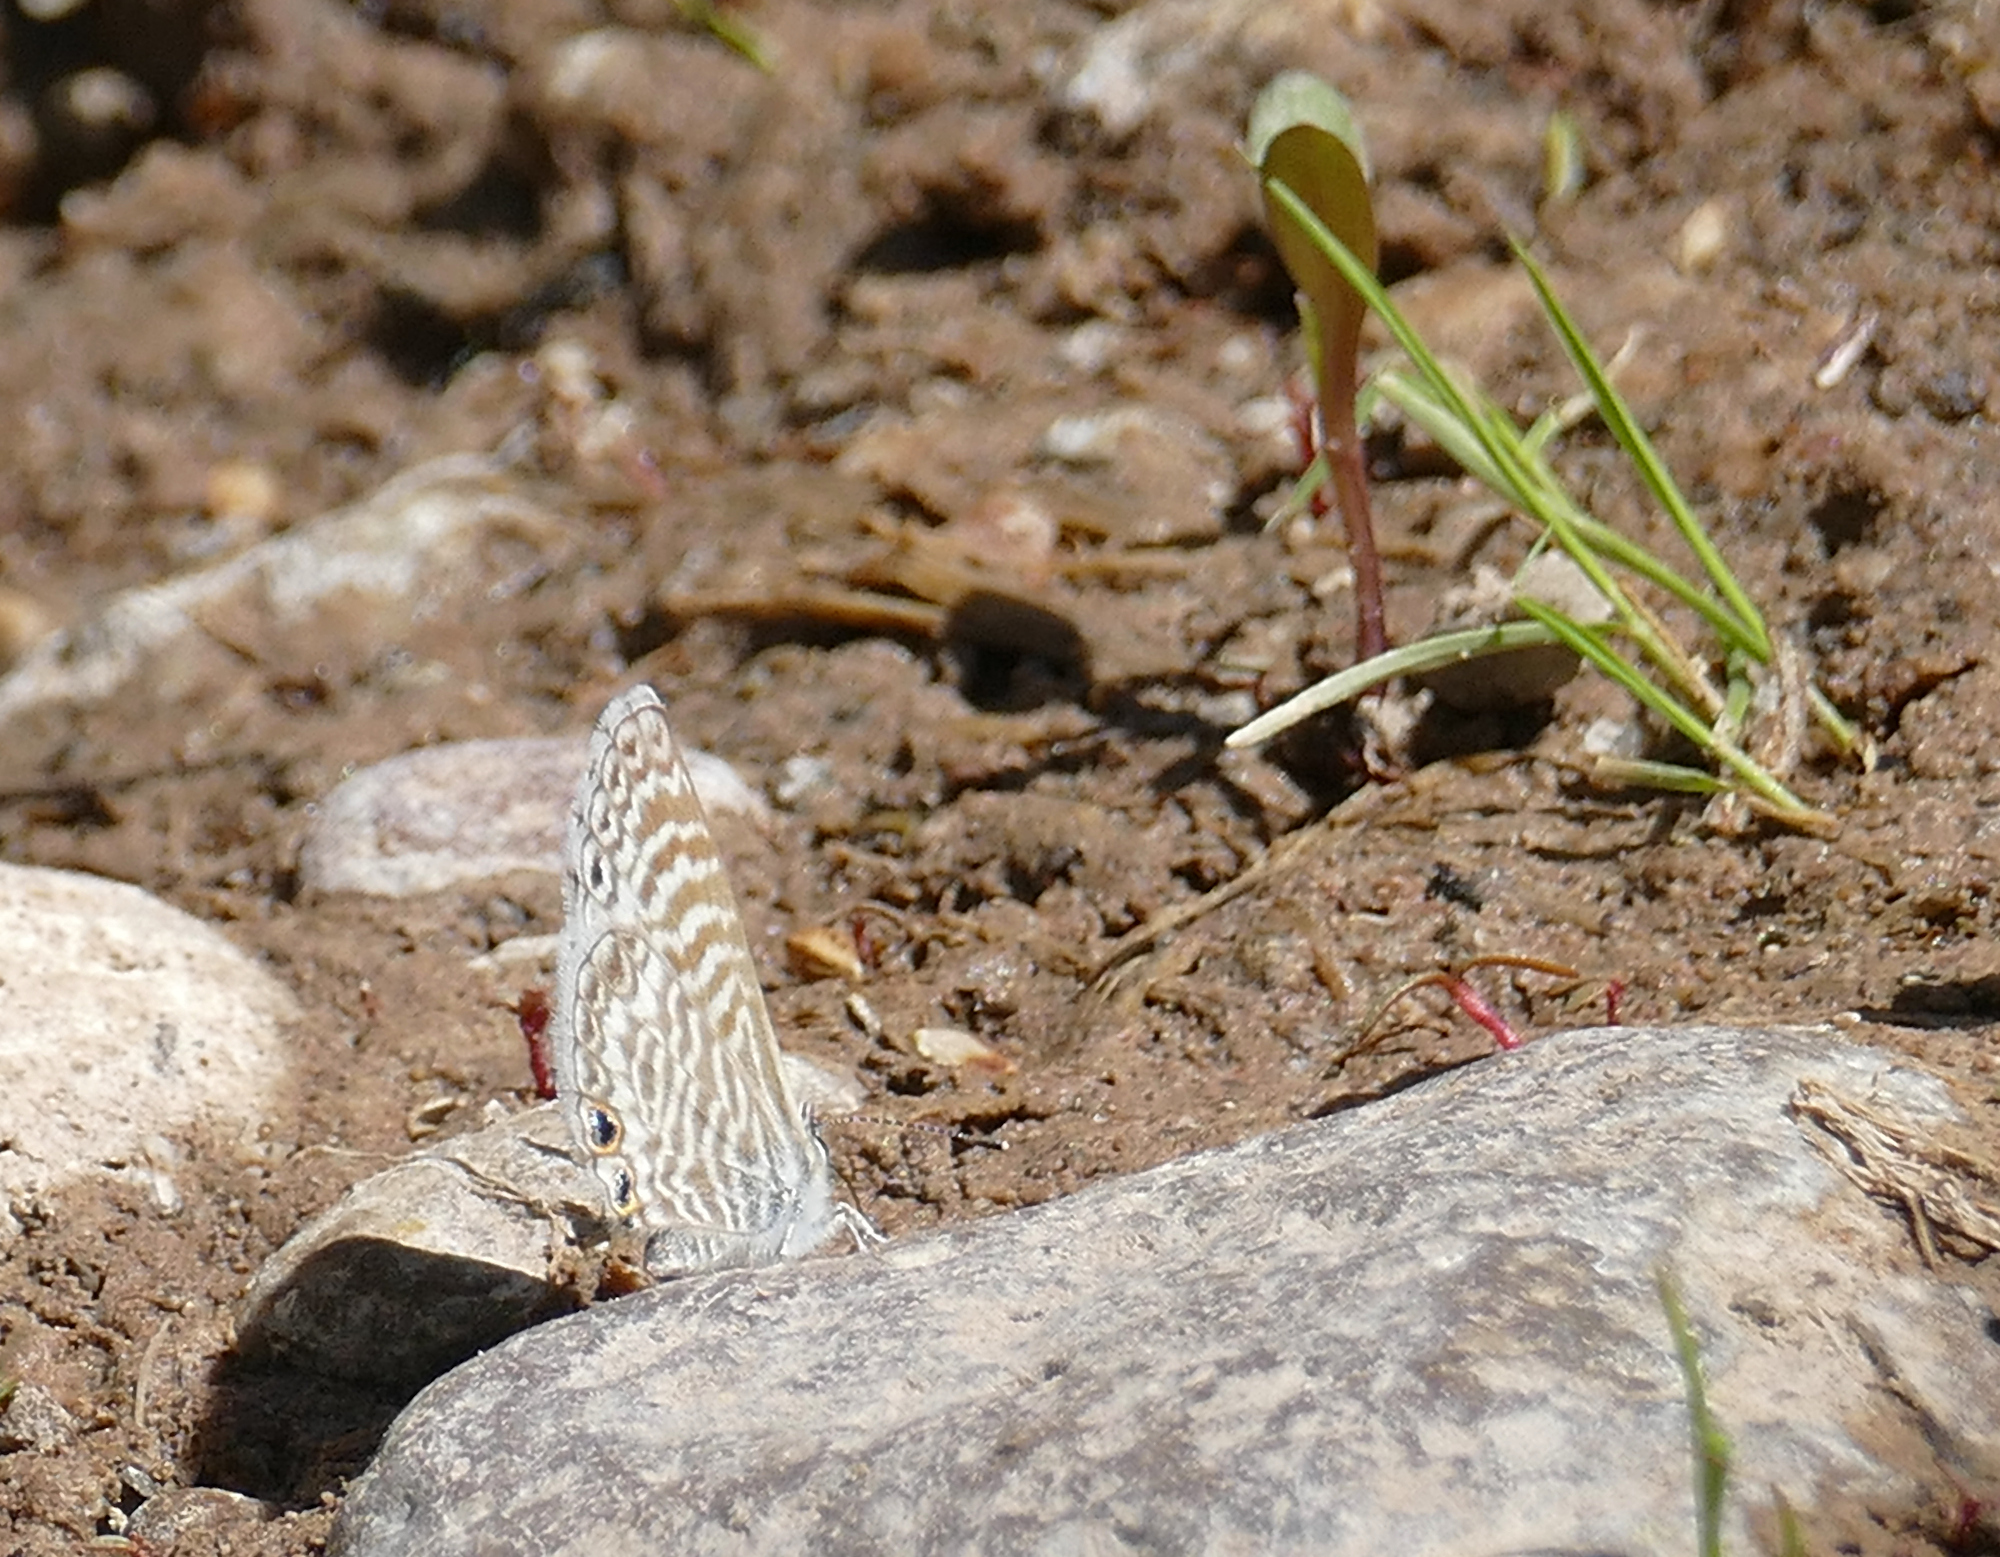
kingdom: Animalia
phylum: Arthropoda
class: Insecta
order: Lepidoptera
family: Lycaenidae
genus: Leptotes
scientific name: Leptotes marina
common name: Marine blue
